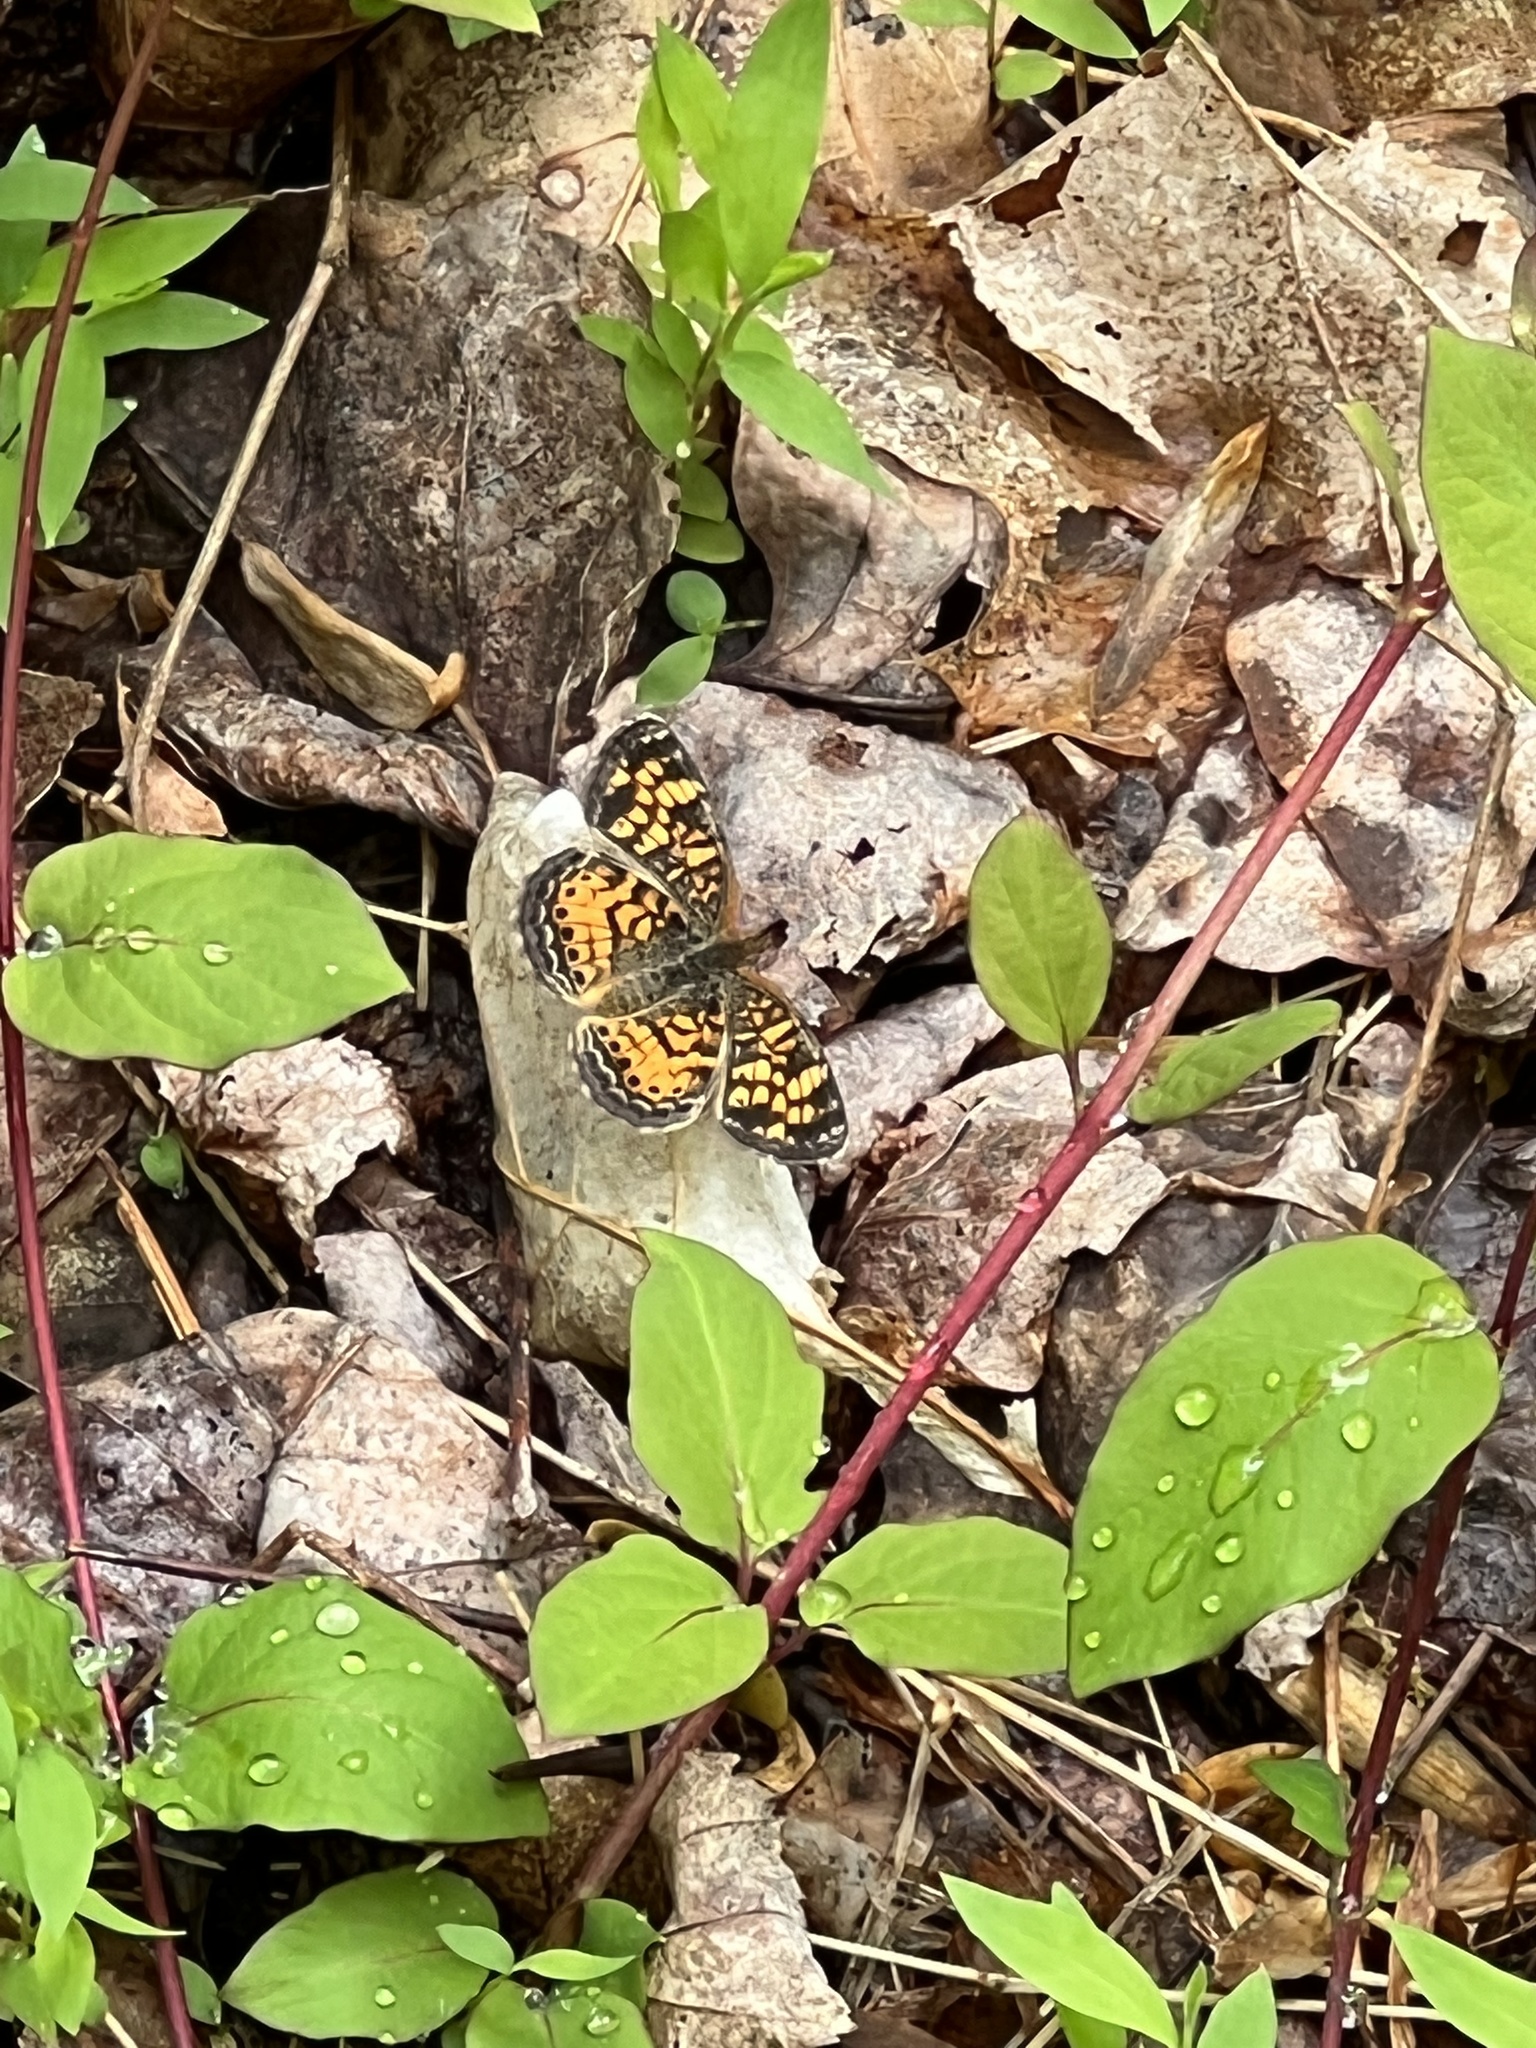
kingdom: Animalia
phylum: Arthropoda
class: Insecta
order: Lepidoptera
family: Nymphalidae
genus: Phyciodes
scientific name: Phyciodes tharos
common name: Pearl crescent
